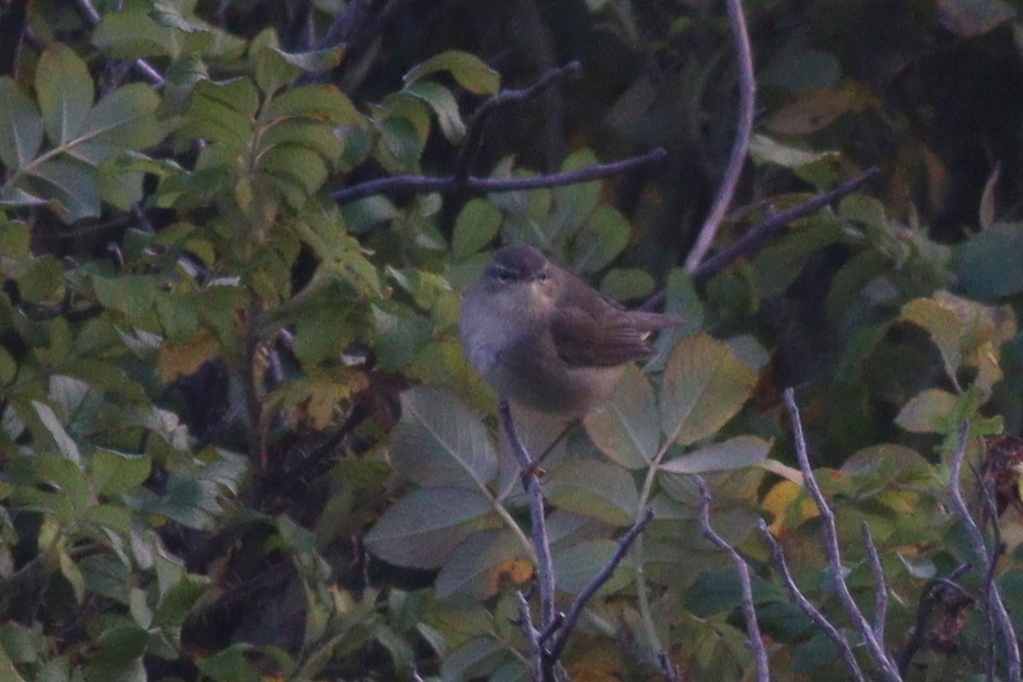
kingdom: Animalia
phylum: Chordata
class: Aves
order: Passeriformes
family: Phylloscopidae
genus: Phylloscopus
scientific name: Phylloscopus fuscatus
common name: Dusky warbler
